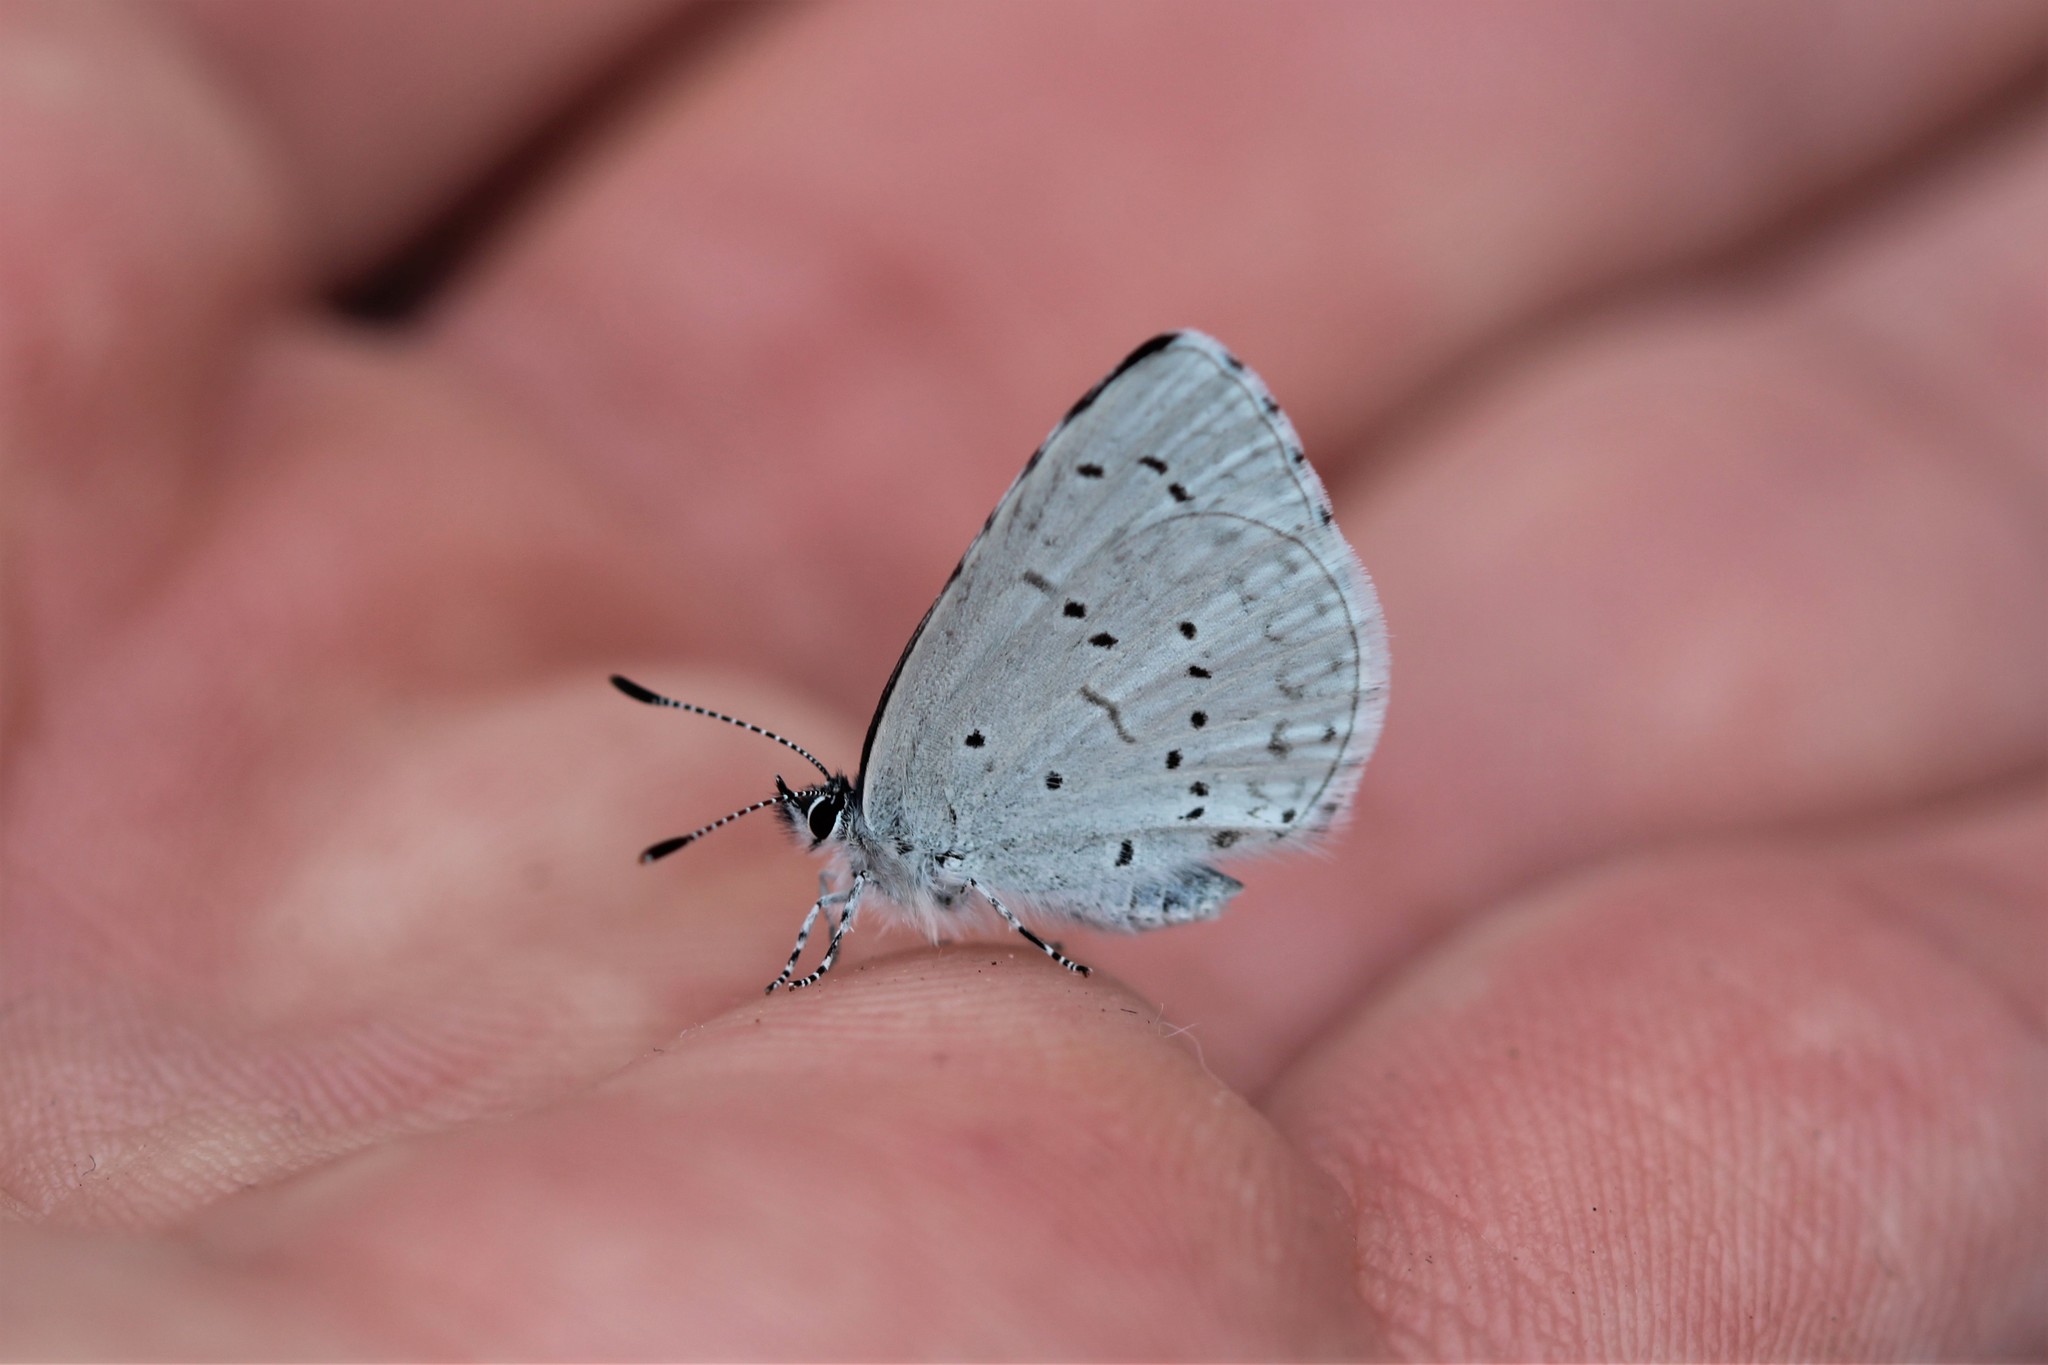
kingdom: Animalia
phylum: Arthropoda
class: Insecta
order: Lepidoptera
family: Lycaenidae
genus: Celastrina
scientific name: Celastrina ladon
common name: Spring azure
